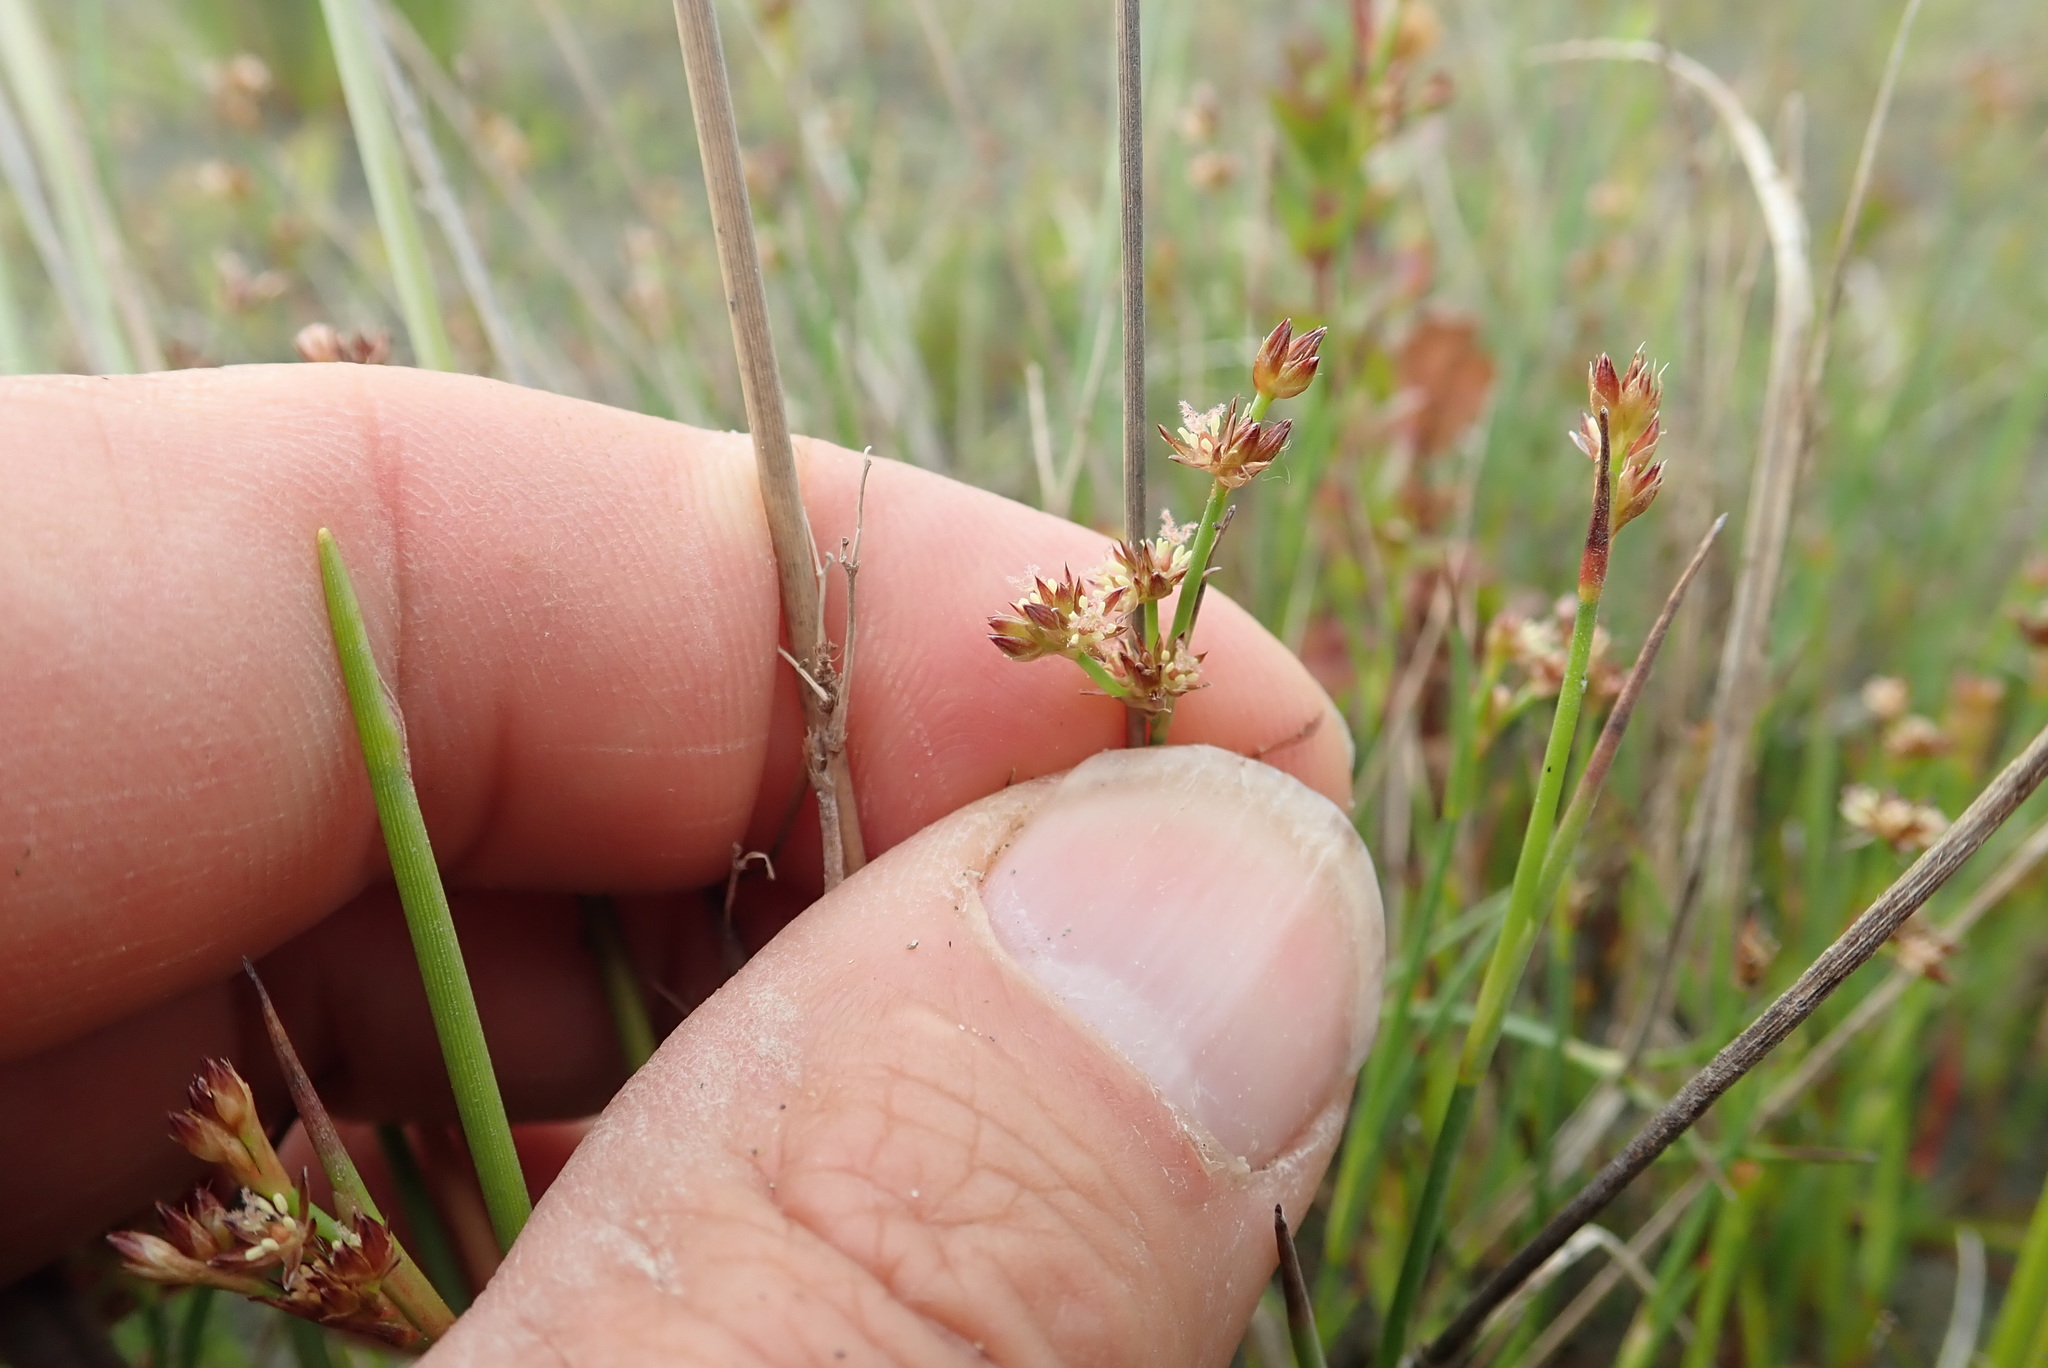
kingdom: Plantae
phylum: Tracheophyta
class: Liliopsida
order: Poales
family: Juncaceae
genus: Juncus
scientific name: Juncus articulatus
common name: Jointed rush
